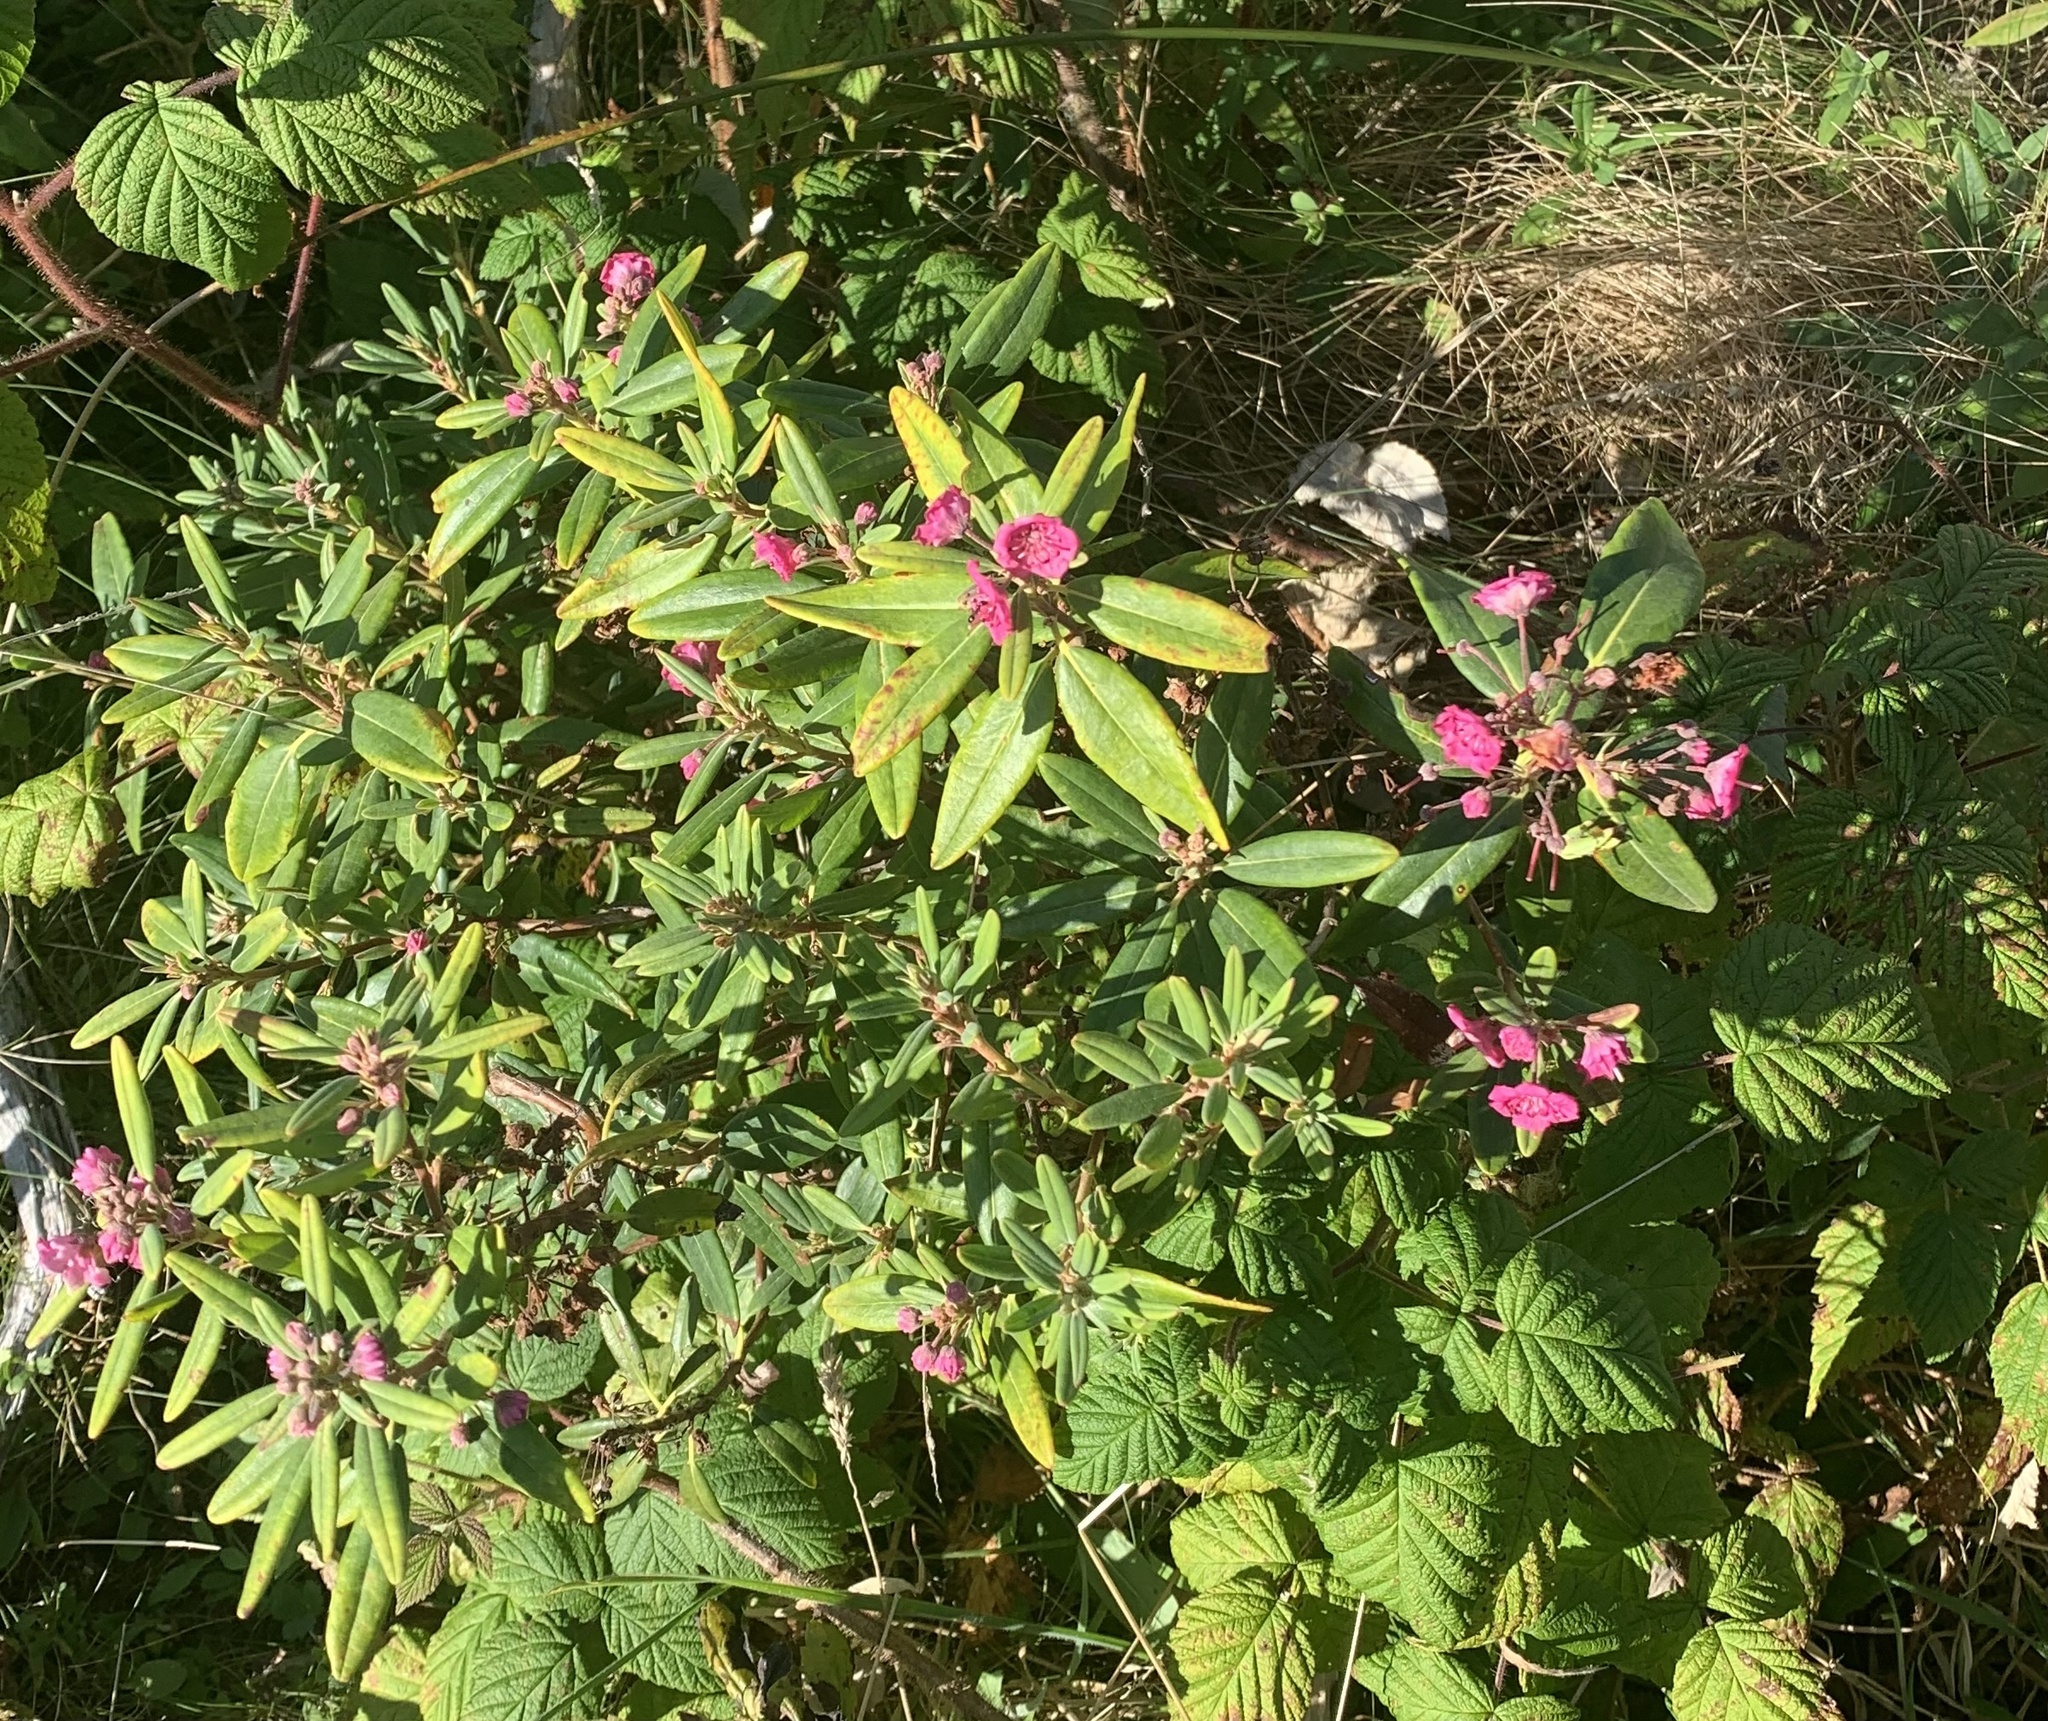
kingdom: Plantae
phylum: Tracheophyta
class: Magnoliopsida
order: Ericales
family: Ericaceae
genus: Kalmia
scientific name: Kalmia angustifolia
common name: Sheep-laurel
